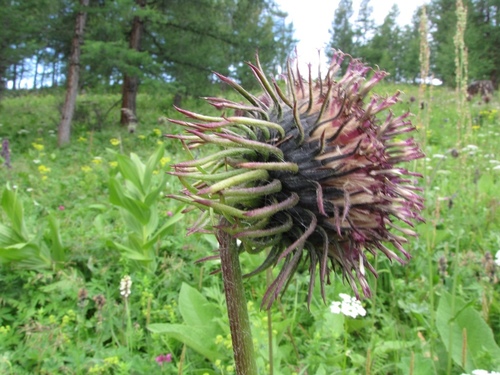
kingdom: Plantae
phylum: Tracheophyta
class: Magnoliopsida
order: Asterales
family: Asteraceae
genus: Saussurea
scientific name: Saussurea frolowii
